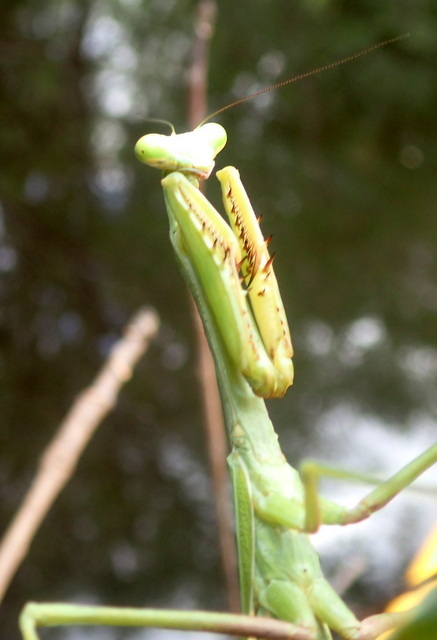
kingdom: Animalia
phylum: Arthropoda
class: Insecta
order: Mantodea
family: Mantidae
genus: Stagmomantis
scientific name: Stagmomantis floridensis
